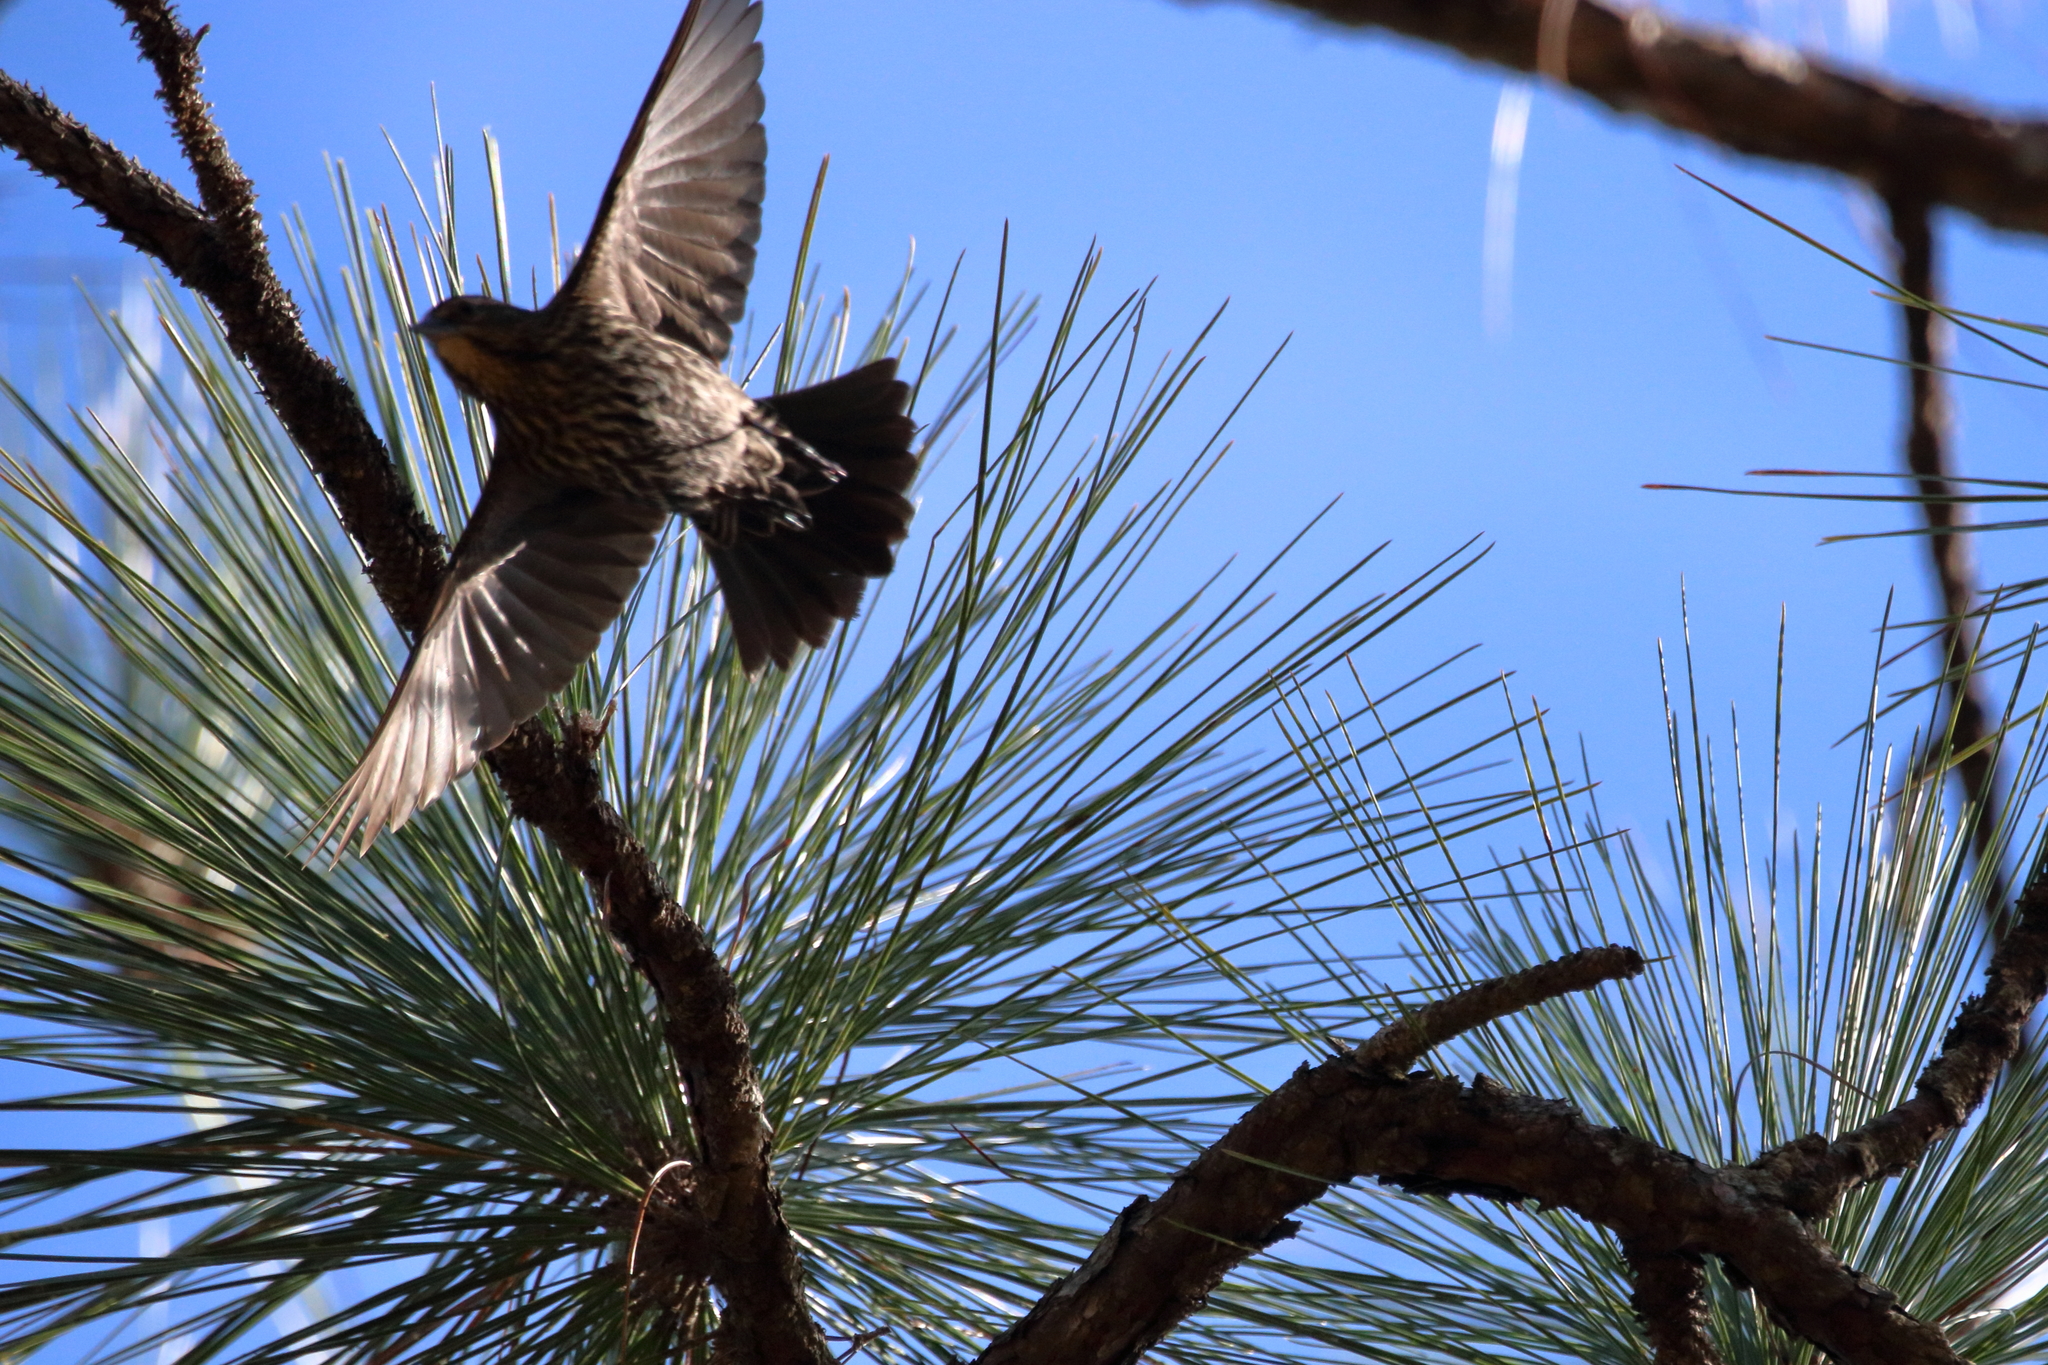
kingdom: Animalia
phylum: Chordata
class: Aves
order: Passeriformes
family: Icteridae
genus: Agelaius
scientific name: Agelaius phoeniceus
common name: Red-winged blackbird
